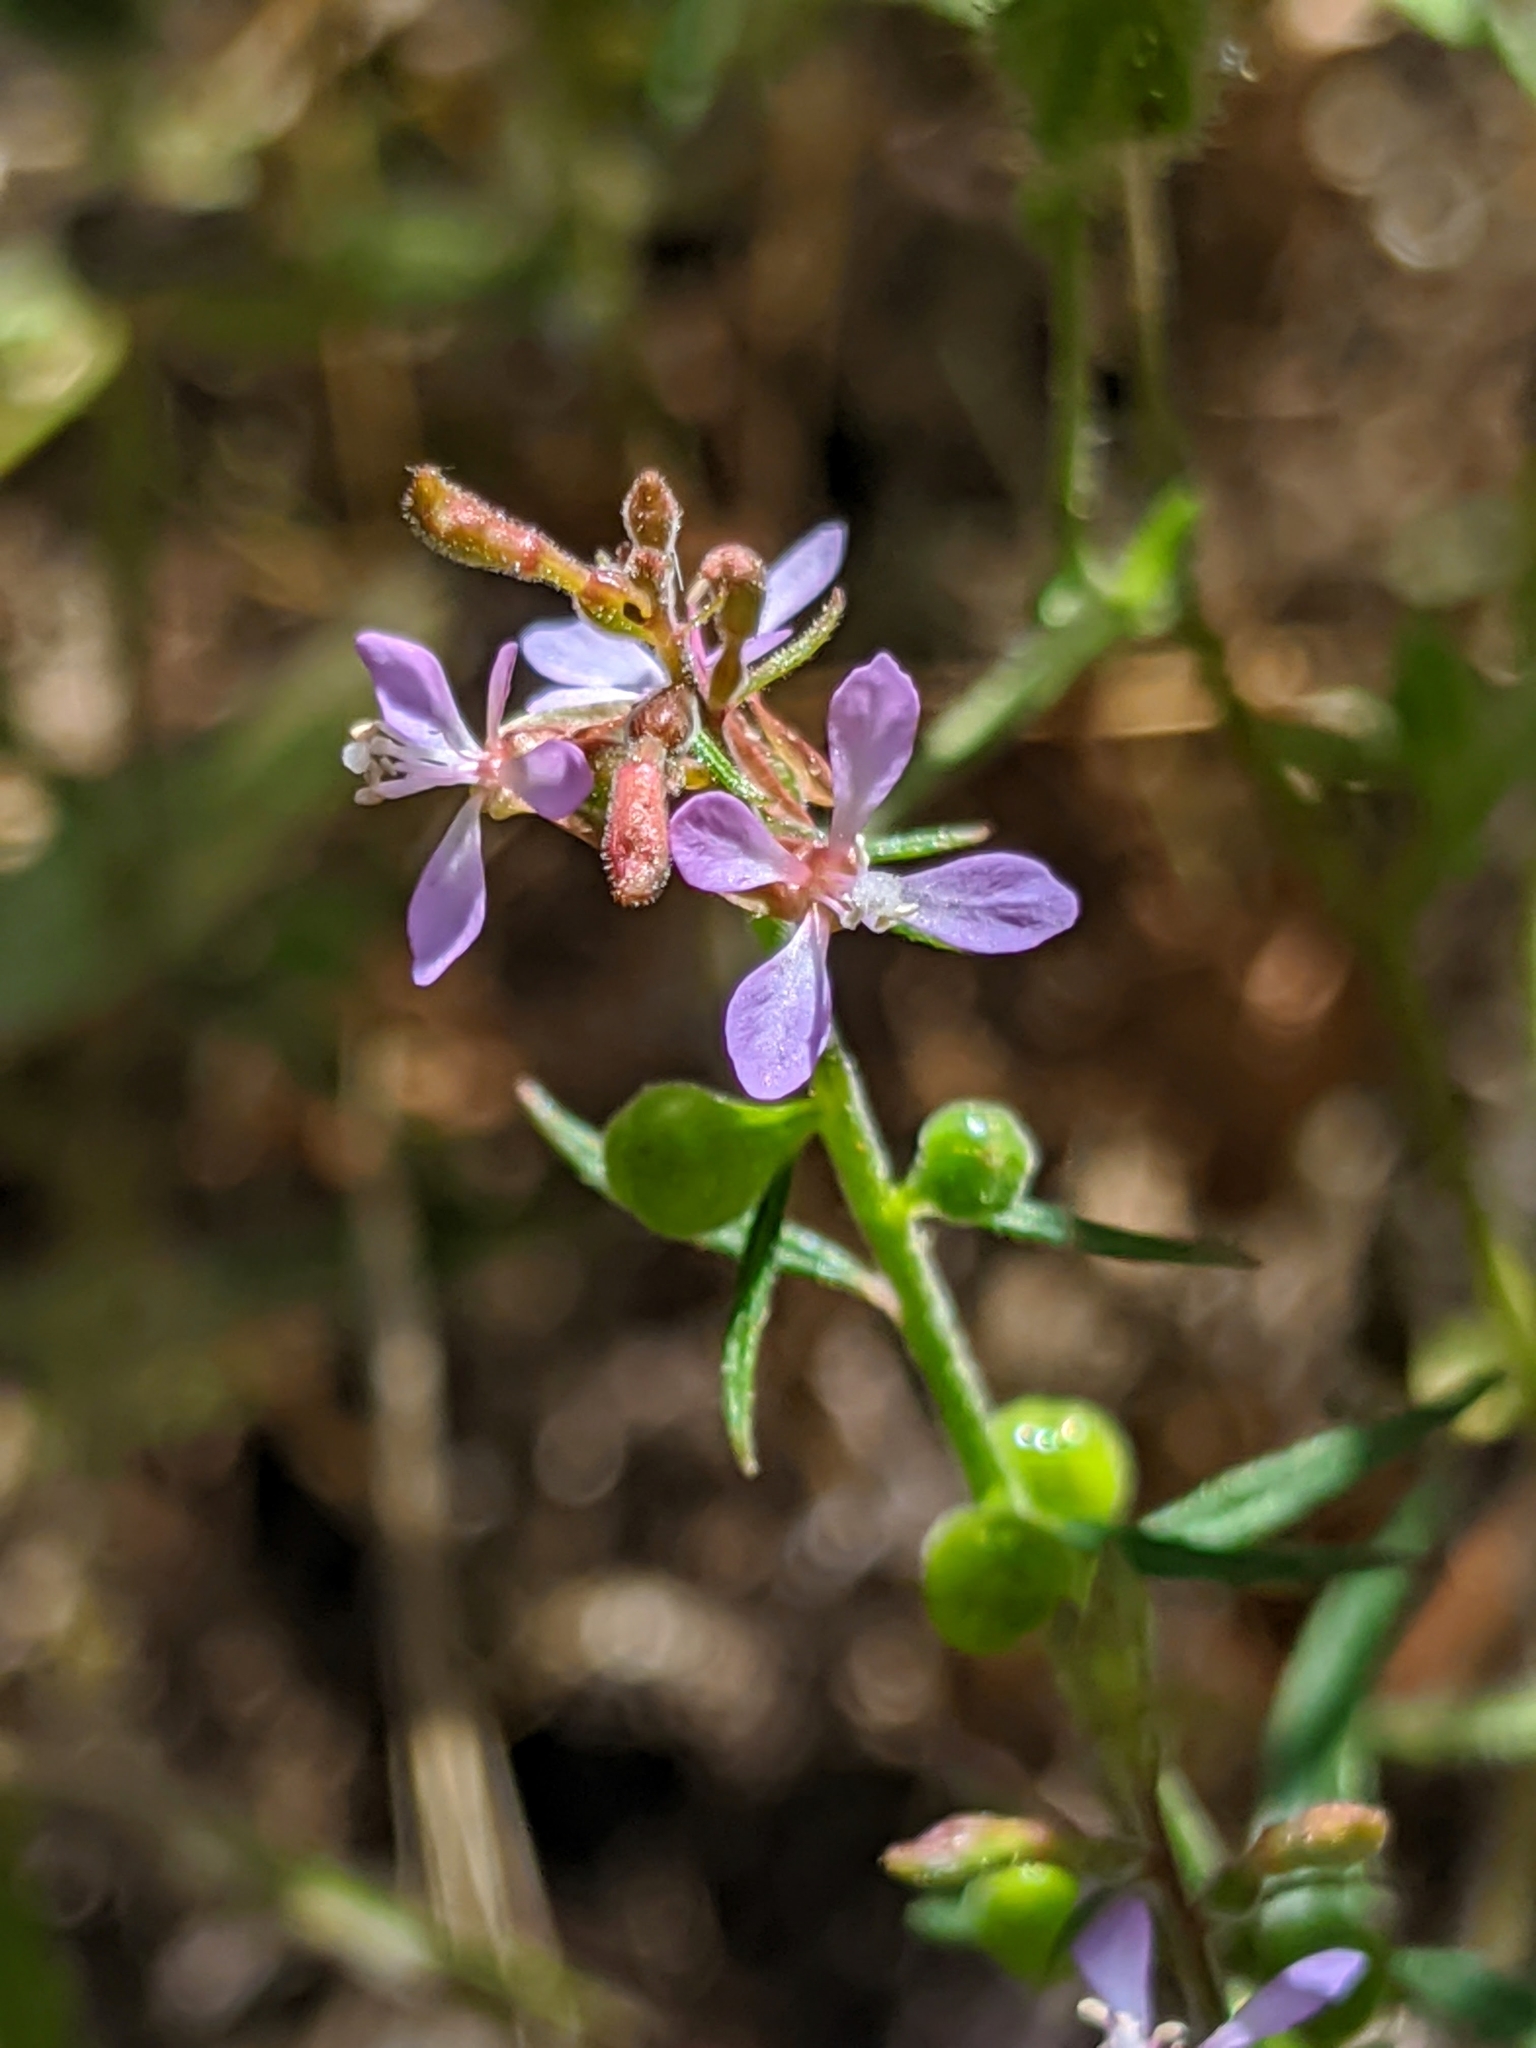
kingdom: Plantae
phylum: Tracheophyta
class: Magnoliopsida
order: Myrtales
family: Onagraceae
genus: Clarkia
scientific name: Clarkia heterandra
